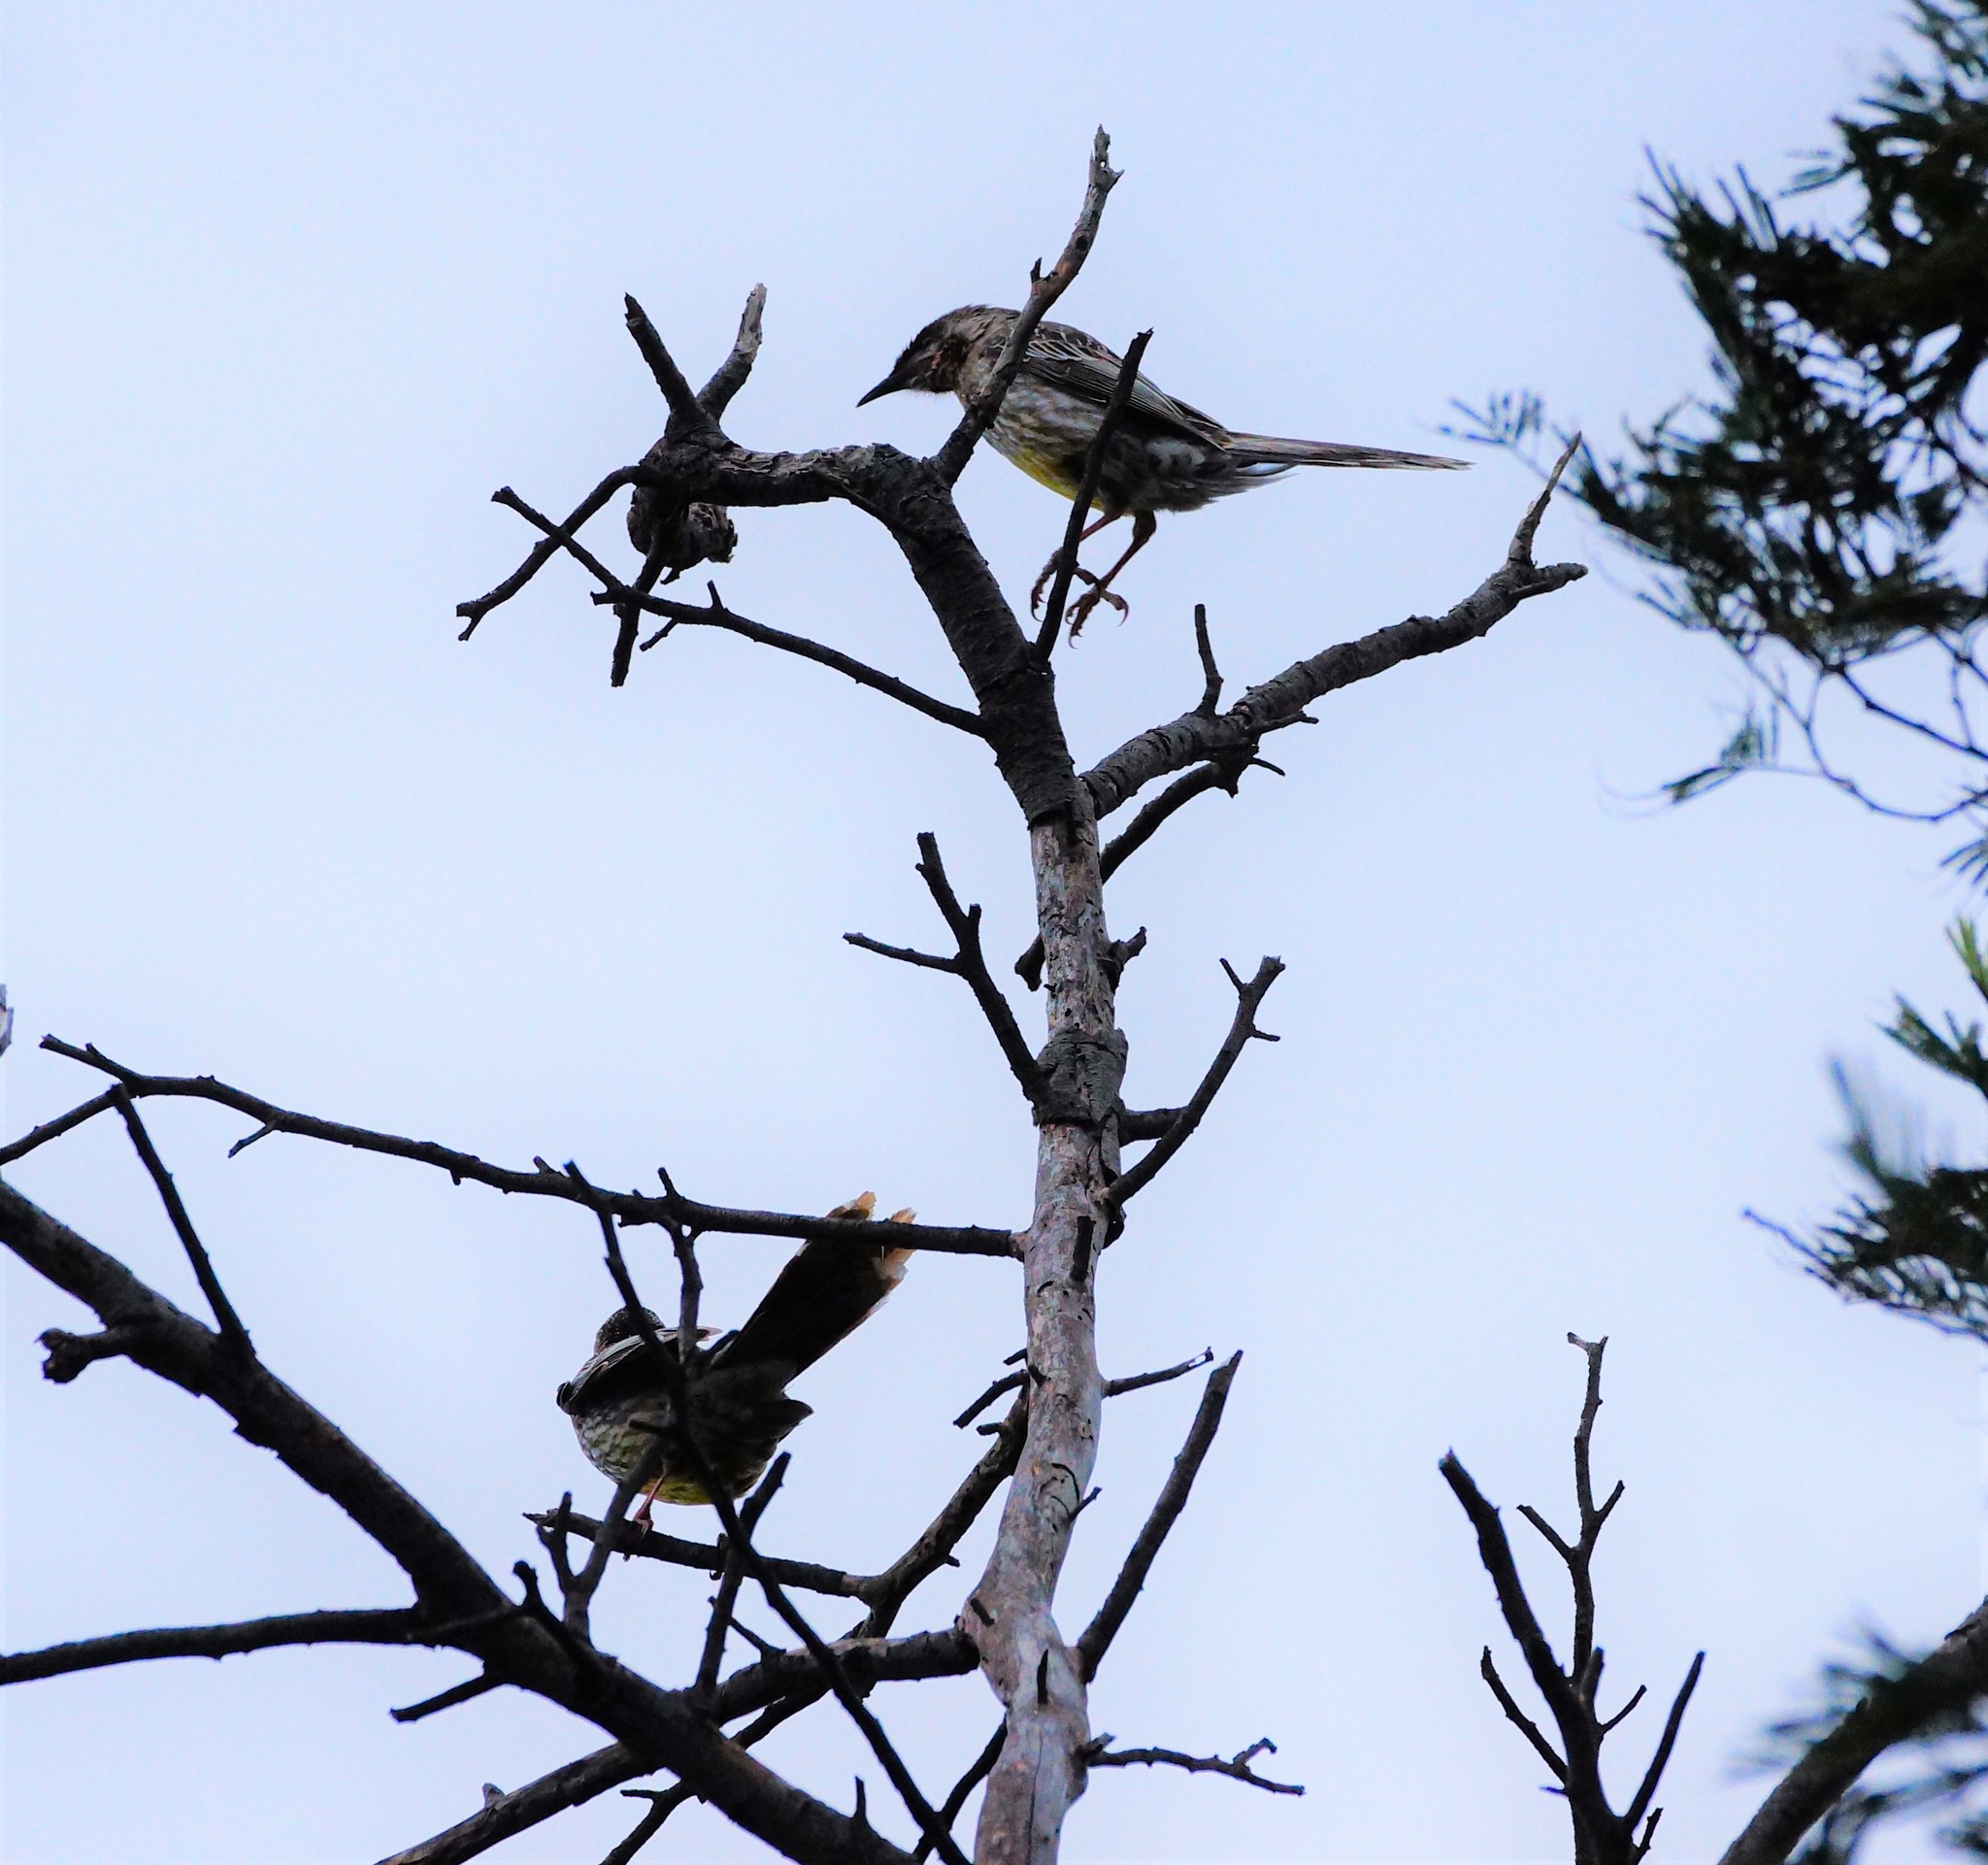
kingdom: Animalia
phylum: Chordata
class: Aves
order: Passeriformes
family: Meliphagidae
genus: Anthochaera
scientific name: Anthochaera carunculata
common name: Red wattlebird
